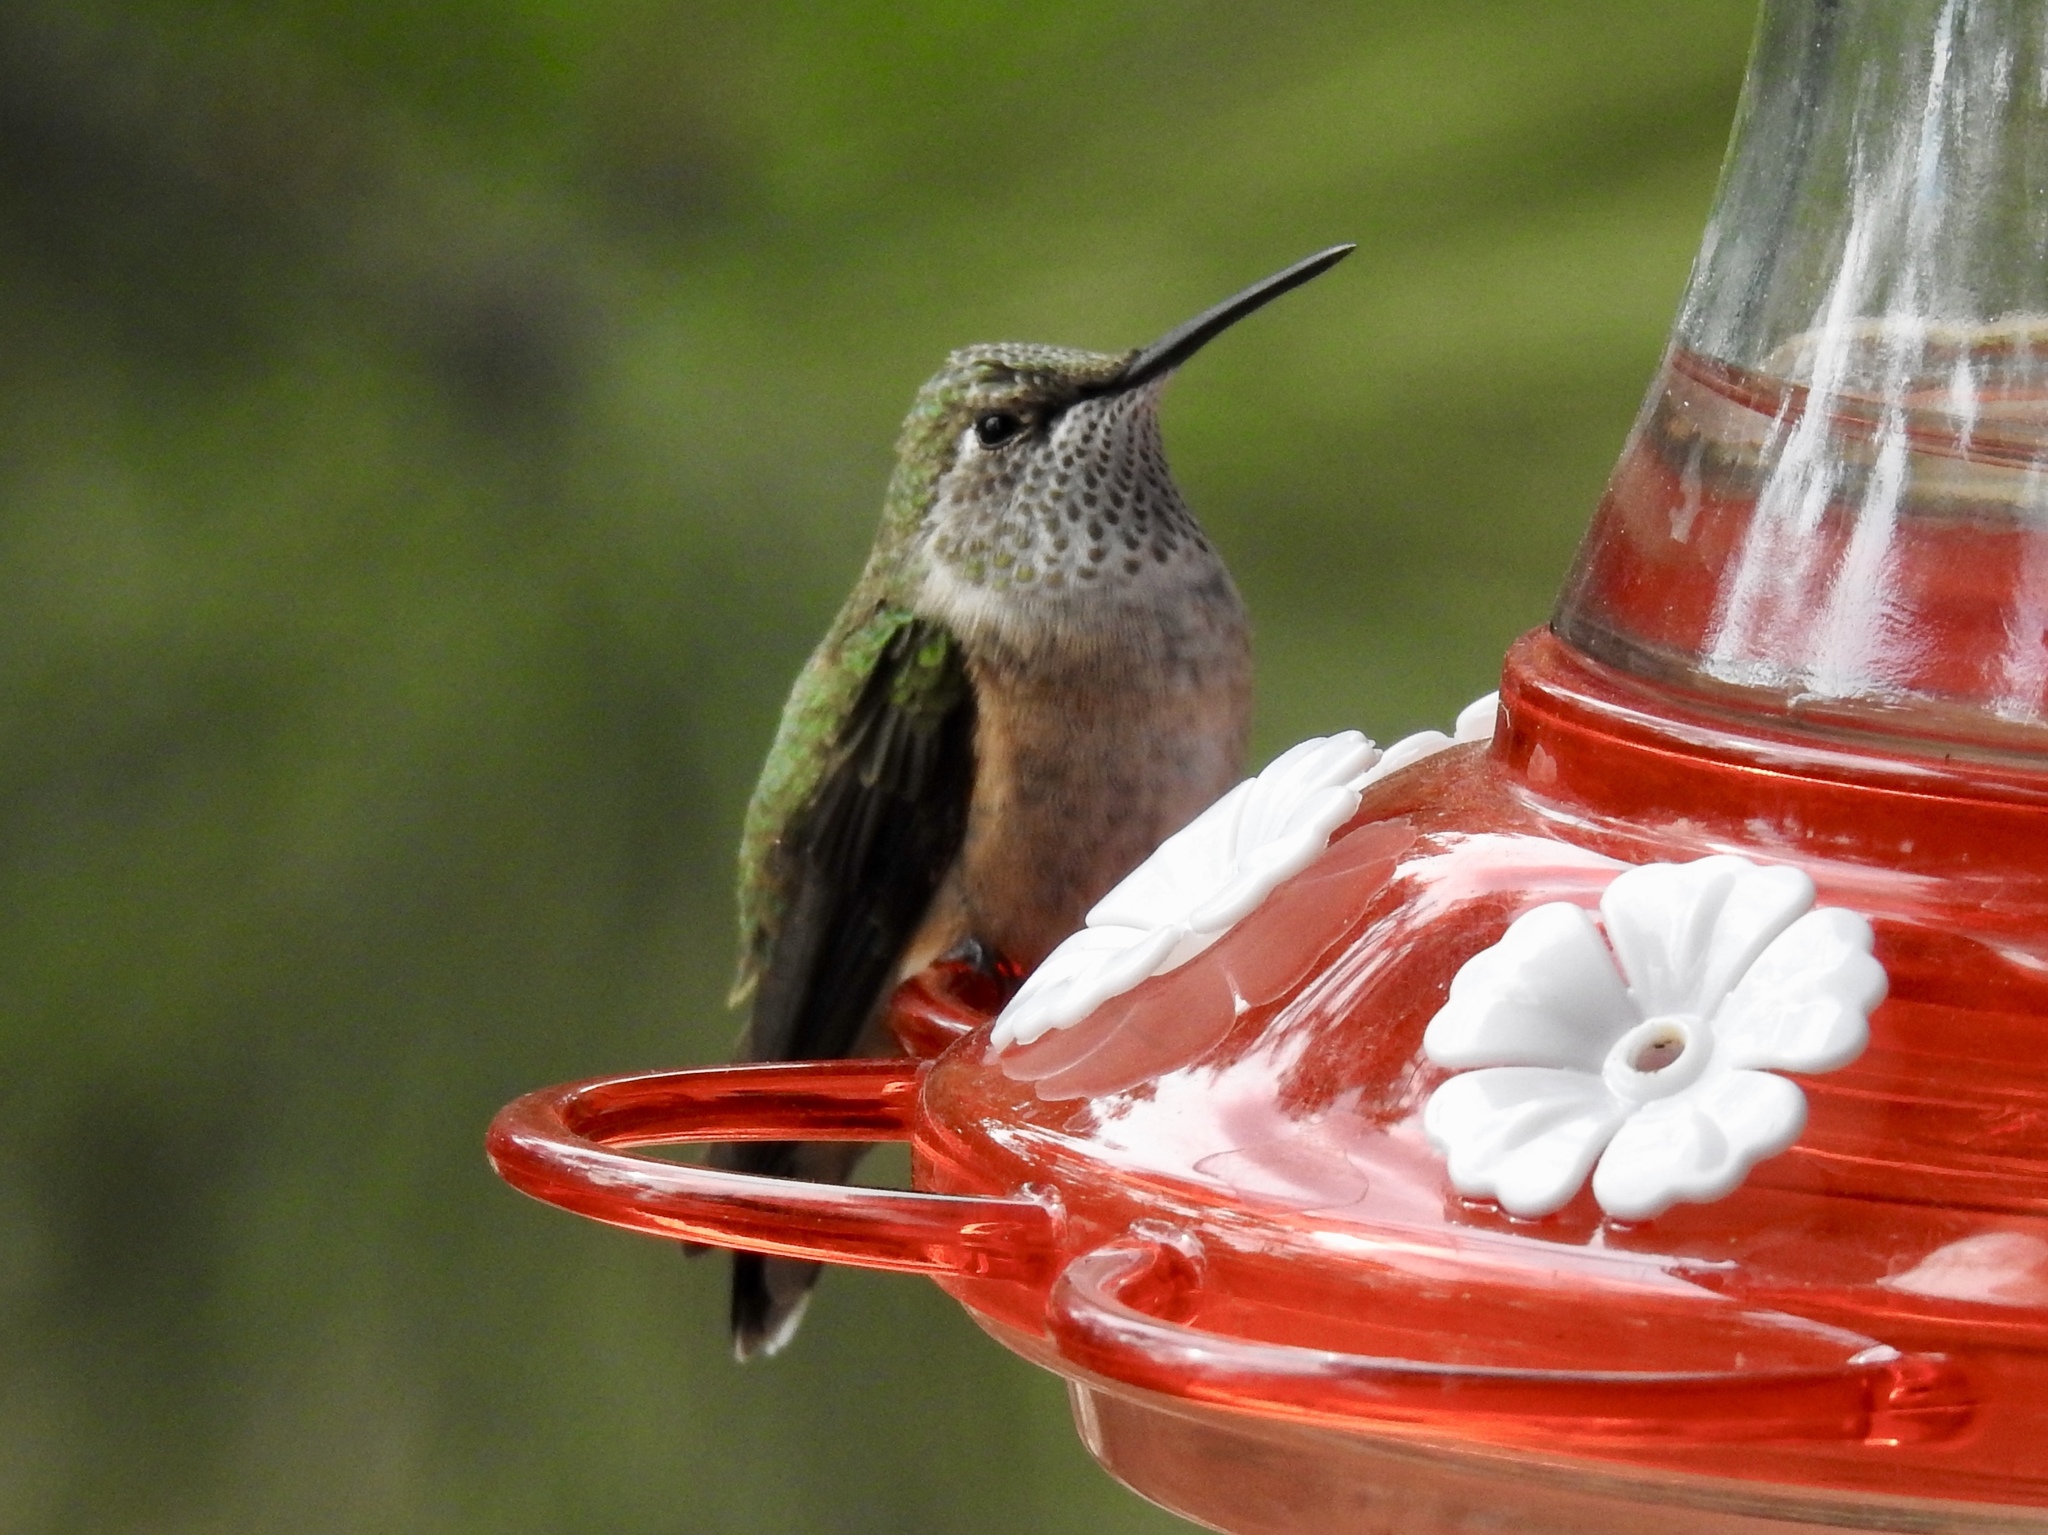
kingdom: Animalia
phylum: Chordata
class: Aves
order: Apodiformes
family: Trochilidae
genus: Selasphorus
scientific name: Selasphorus platycercus
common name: Broad-tailed hummingbird
